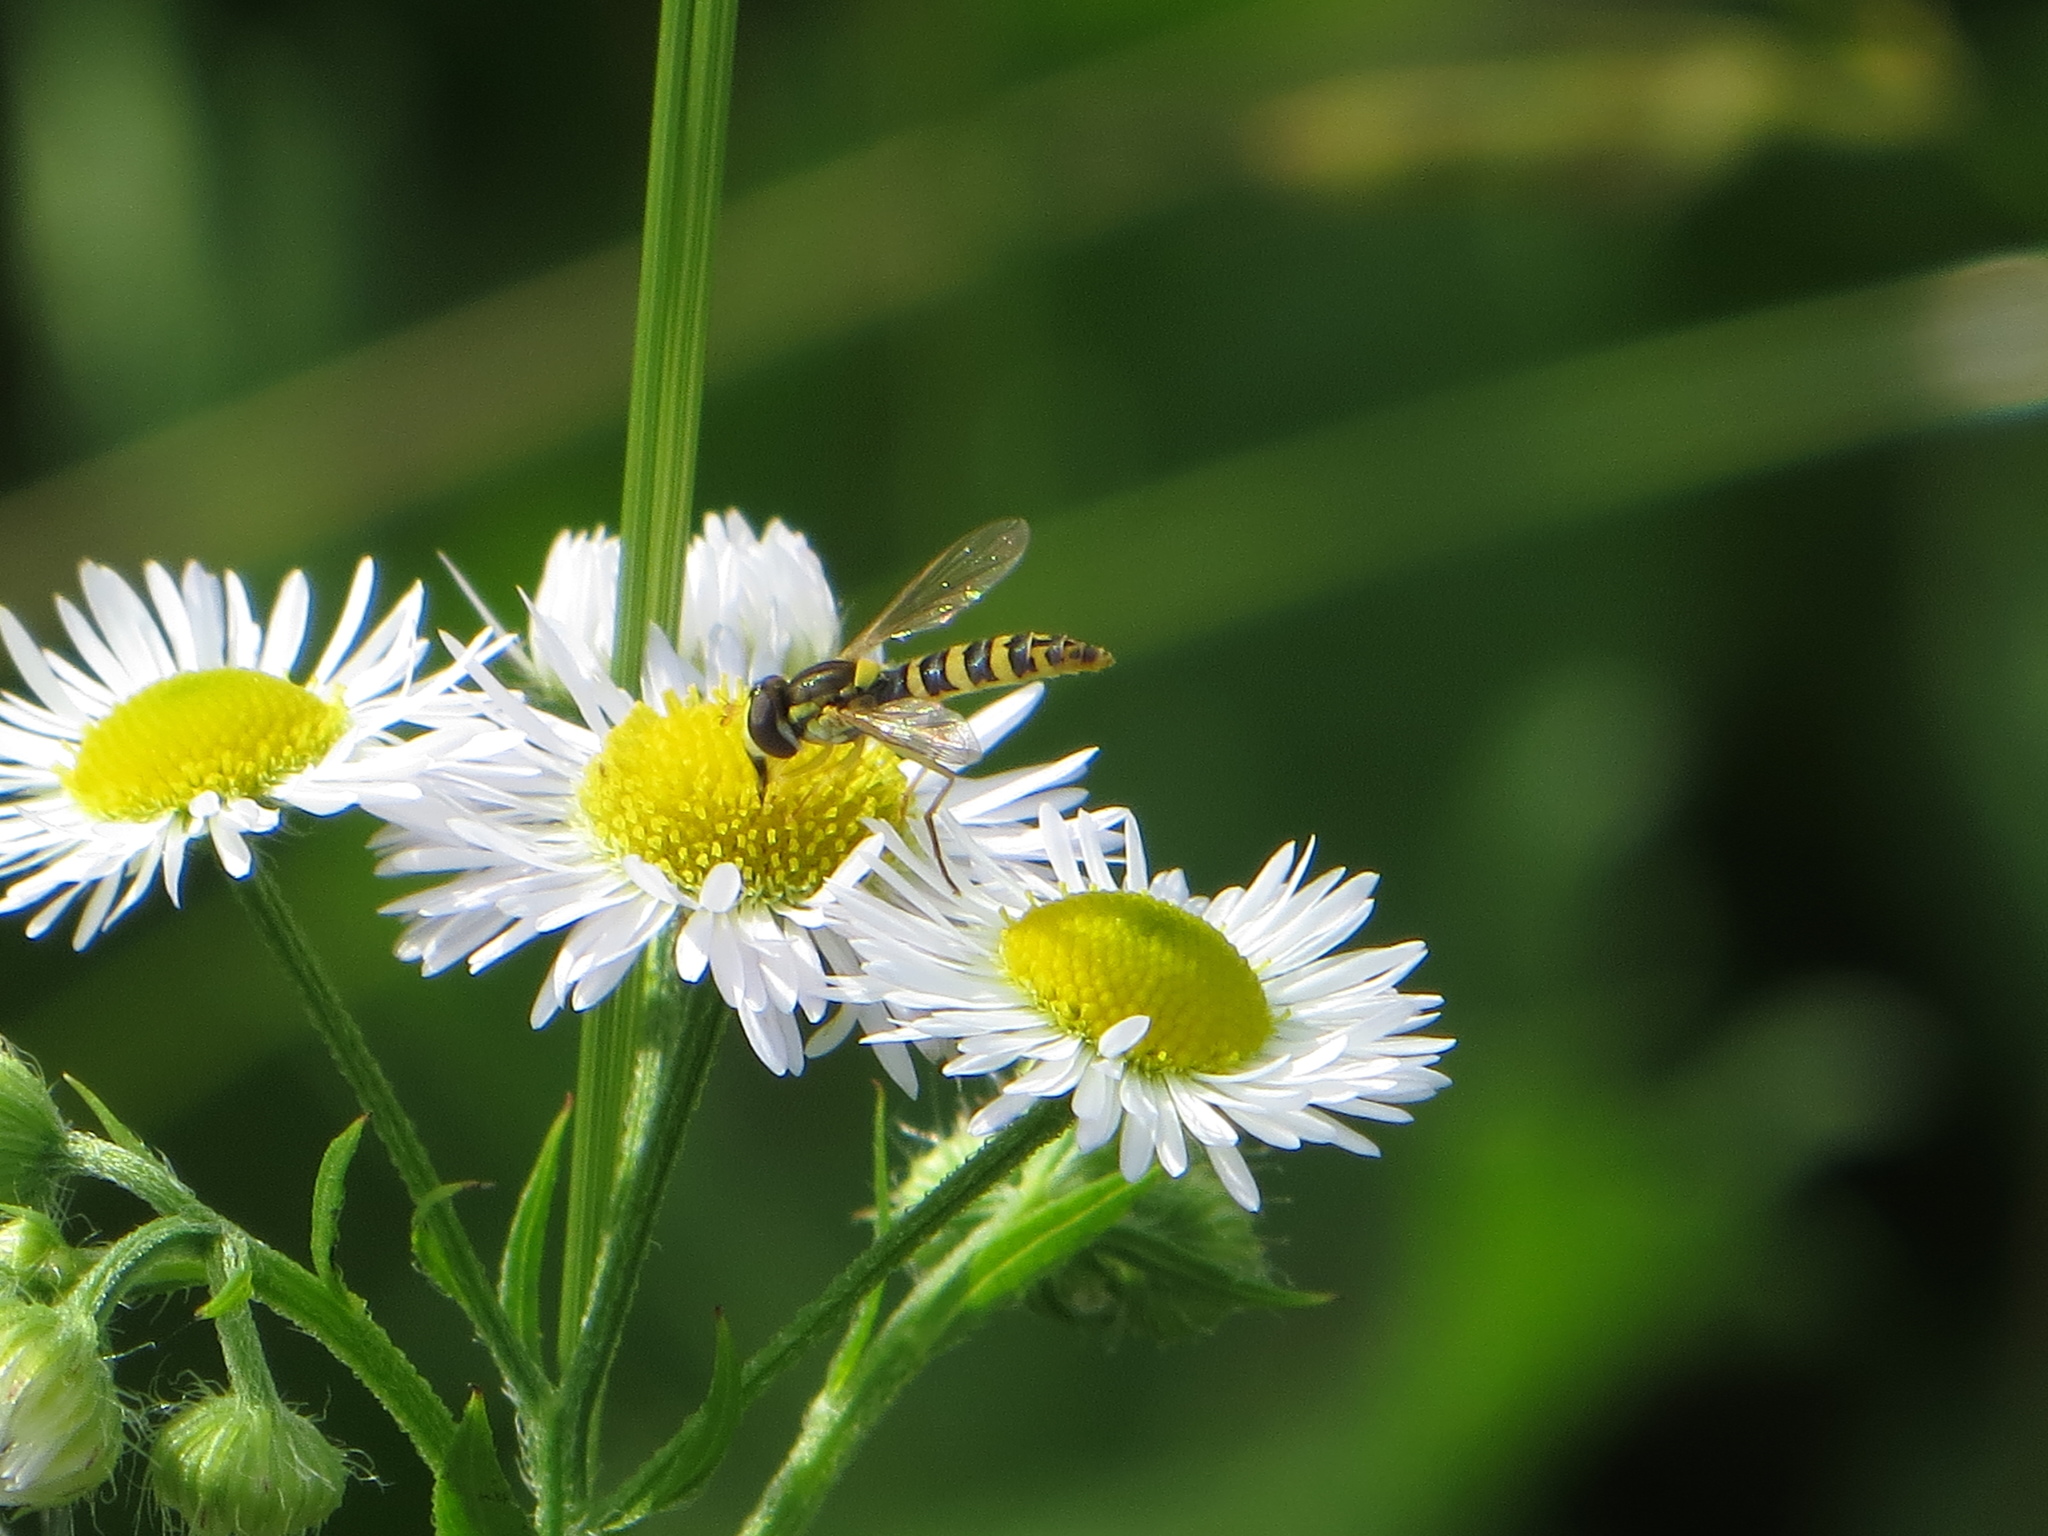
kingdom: Animalia
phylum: Arthropoda
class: Insecta
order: Diptera
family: Syrphidae
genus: Sphaerophoria
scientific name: Sphaerophoria
